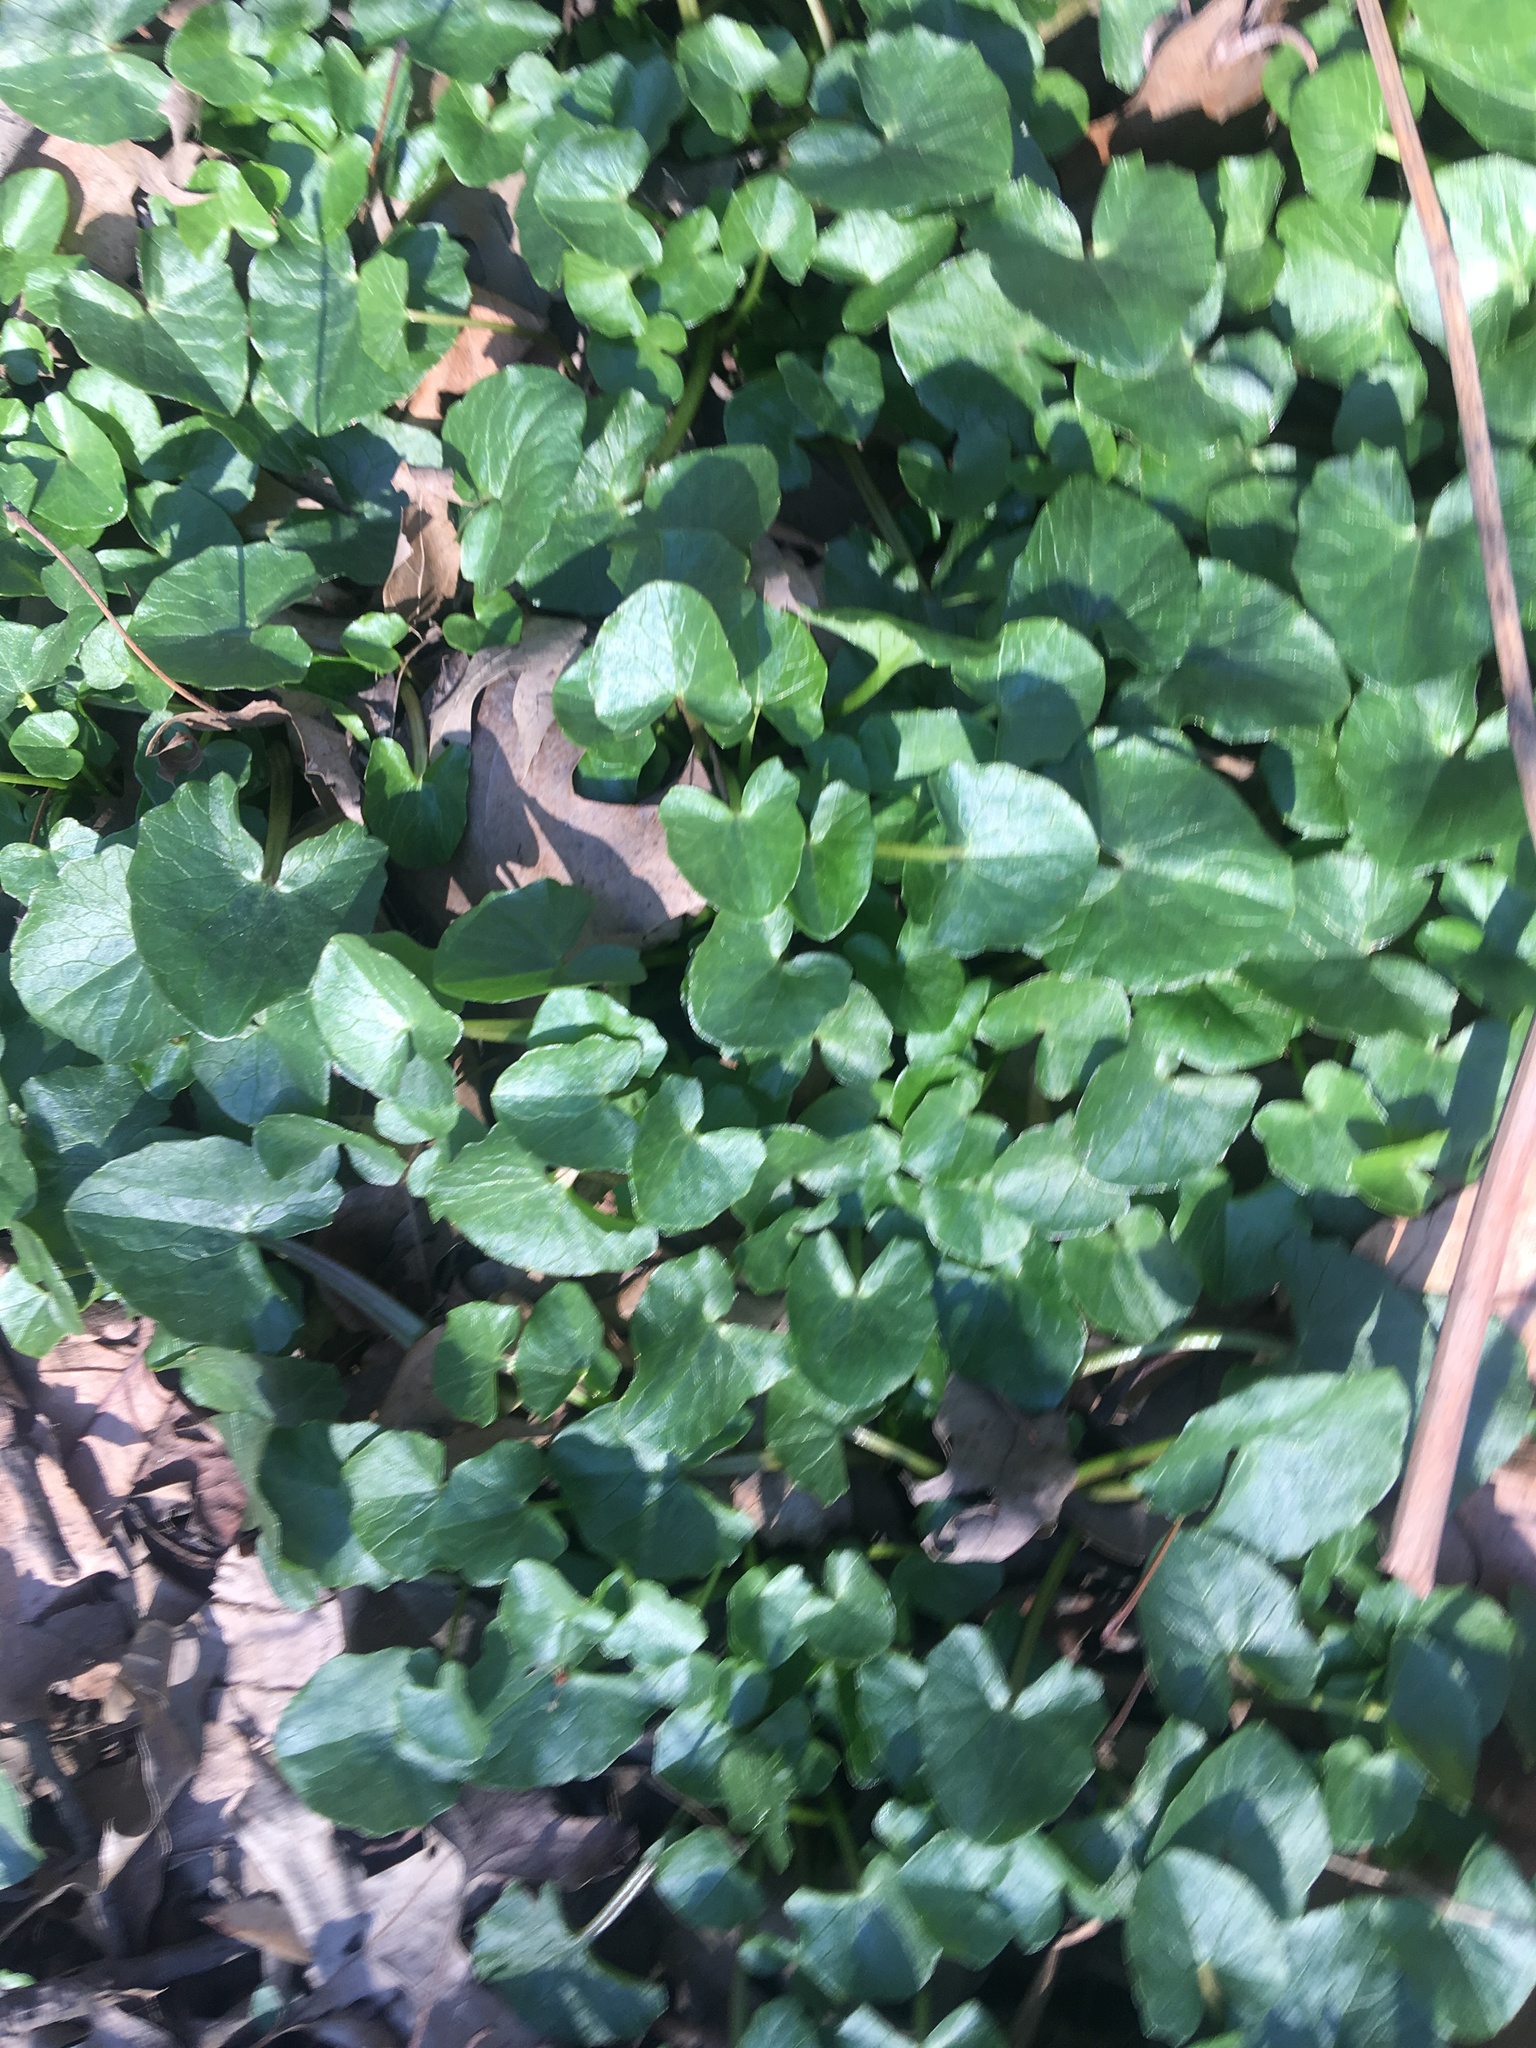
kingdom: Plantae
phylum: Tracheophyta
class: Magnoliopsida
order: Ranunculales
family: Ranunculaceae
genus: Ficaria
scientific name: Ficaria verna
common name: Lesser celandine
